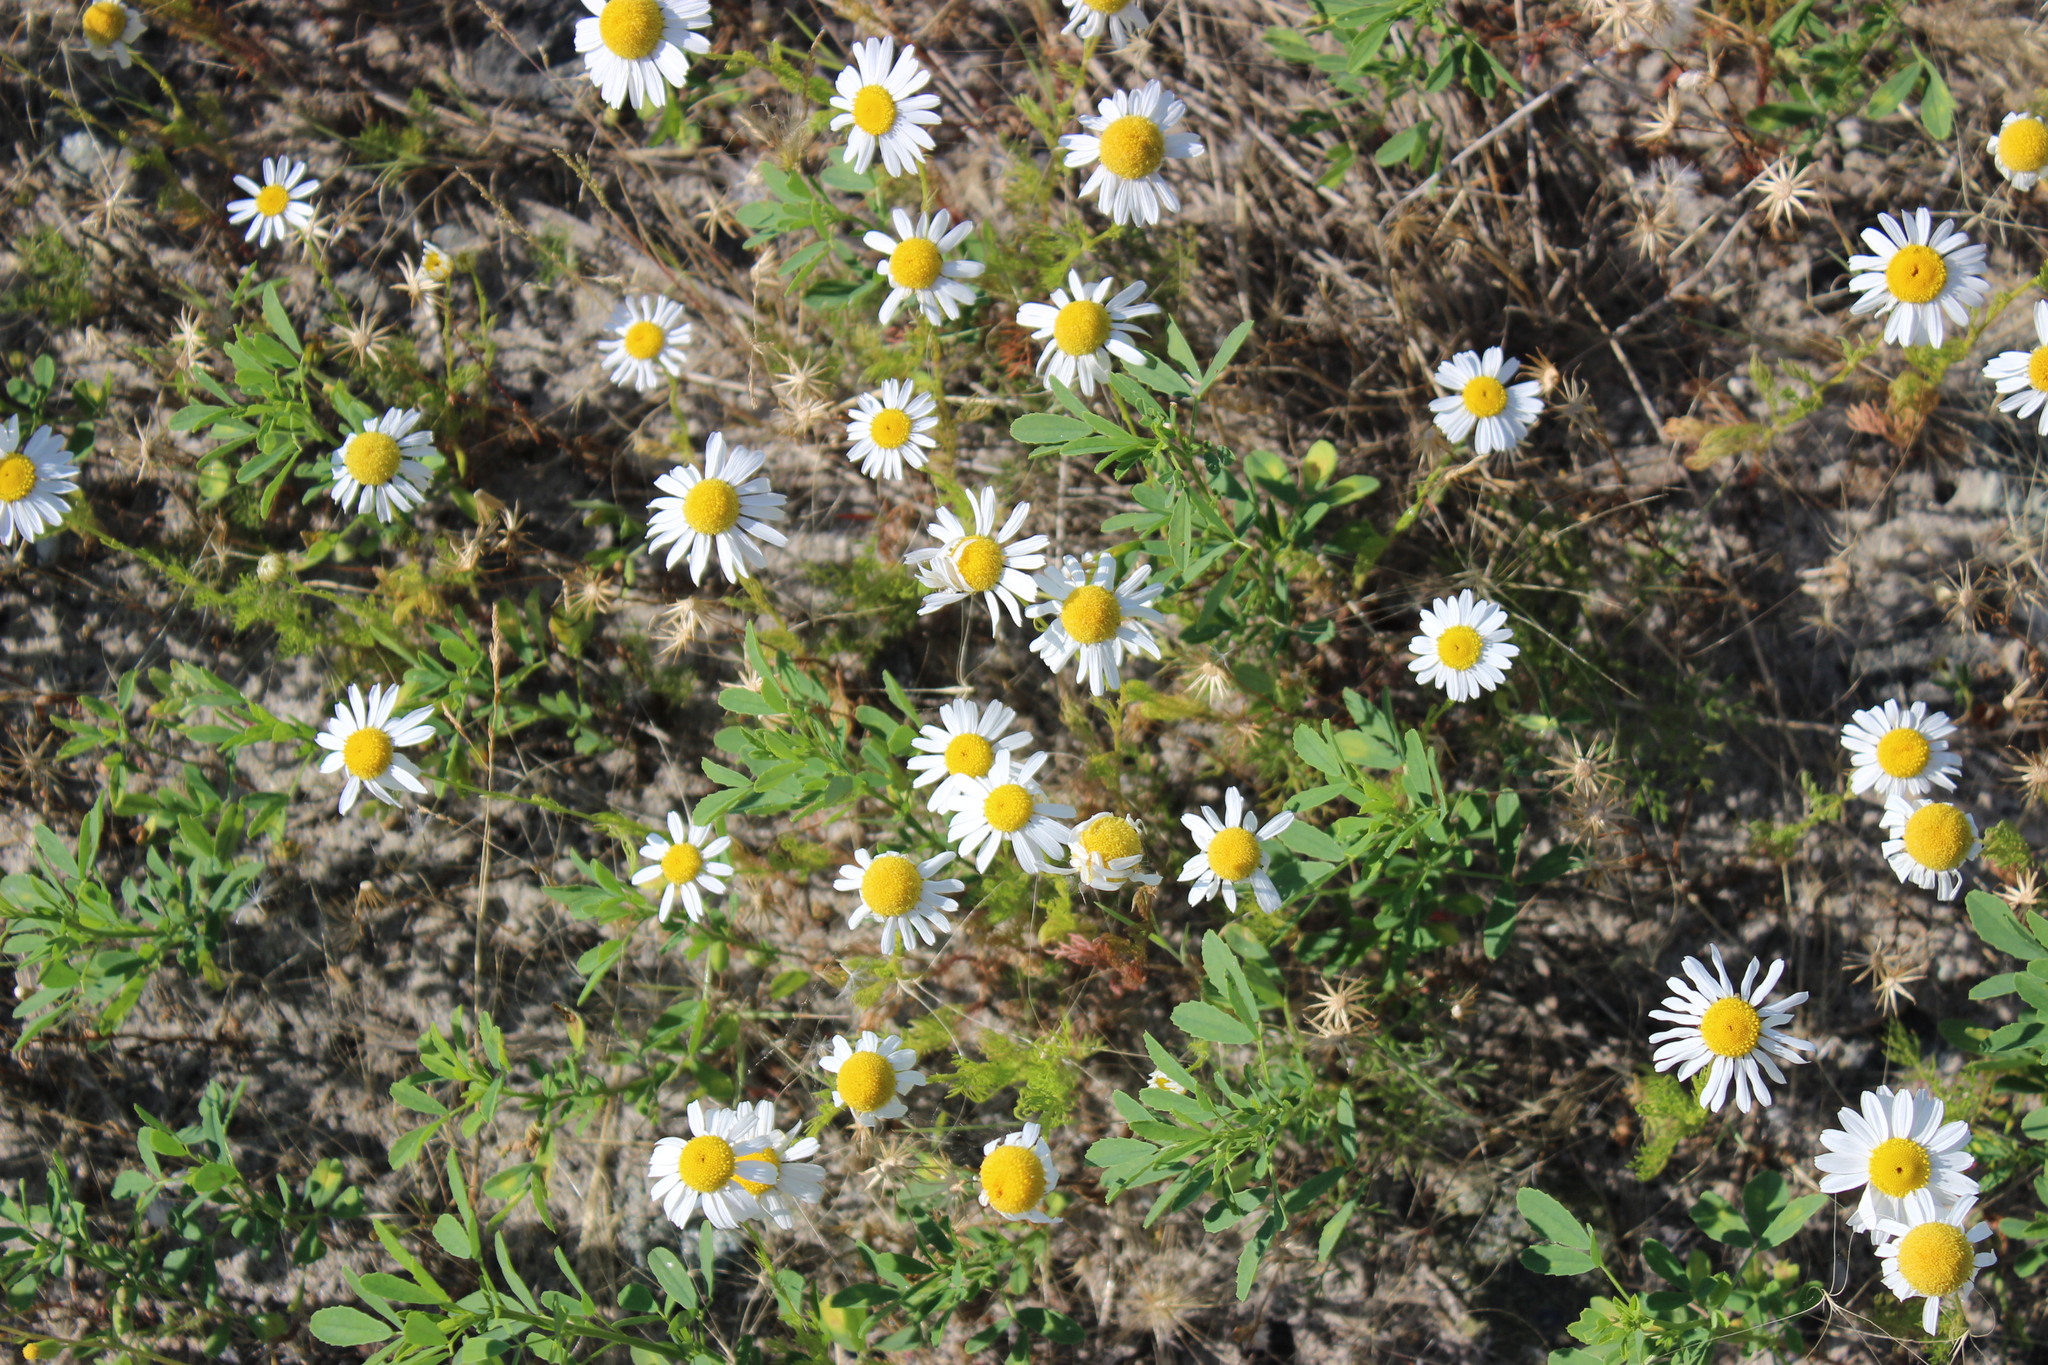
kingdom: Plantae
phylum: Tracheophyta
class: Magnoliopsida
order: Asterales
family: Asteraceae
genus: Tripleurospermum
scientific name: Tripleurospermum inodorum
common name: Scentless mayweed
